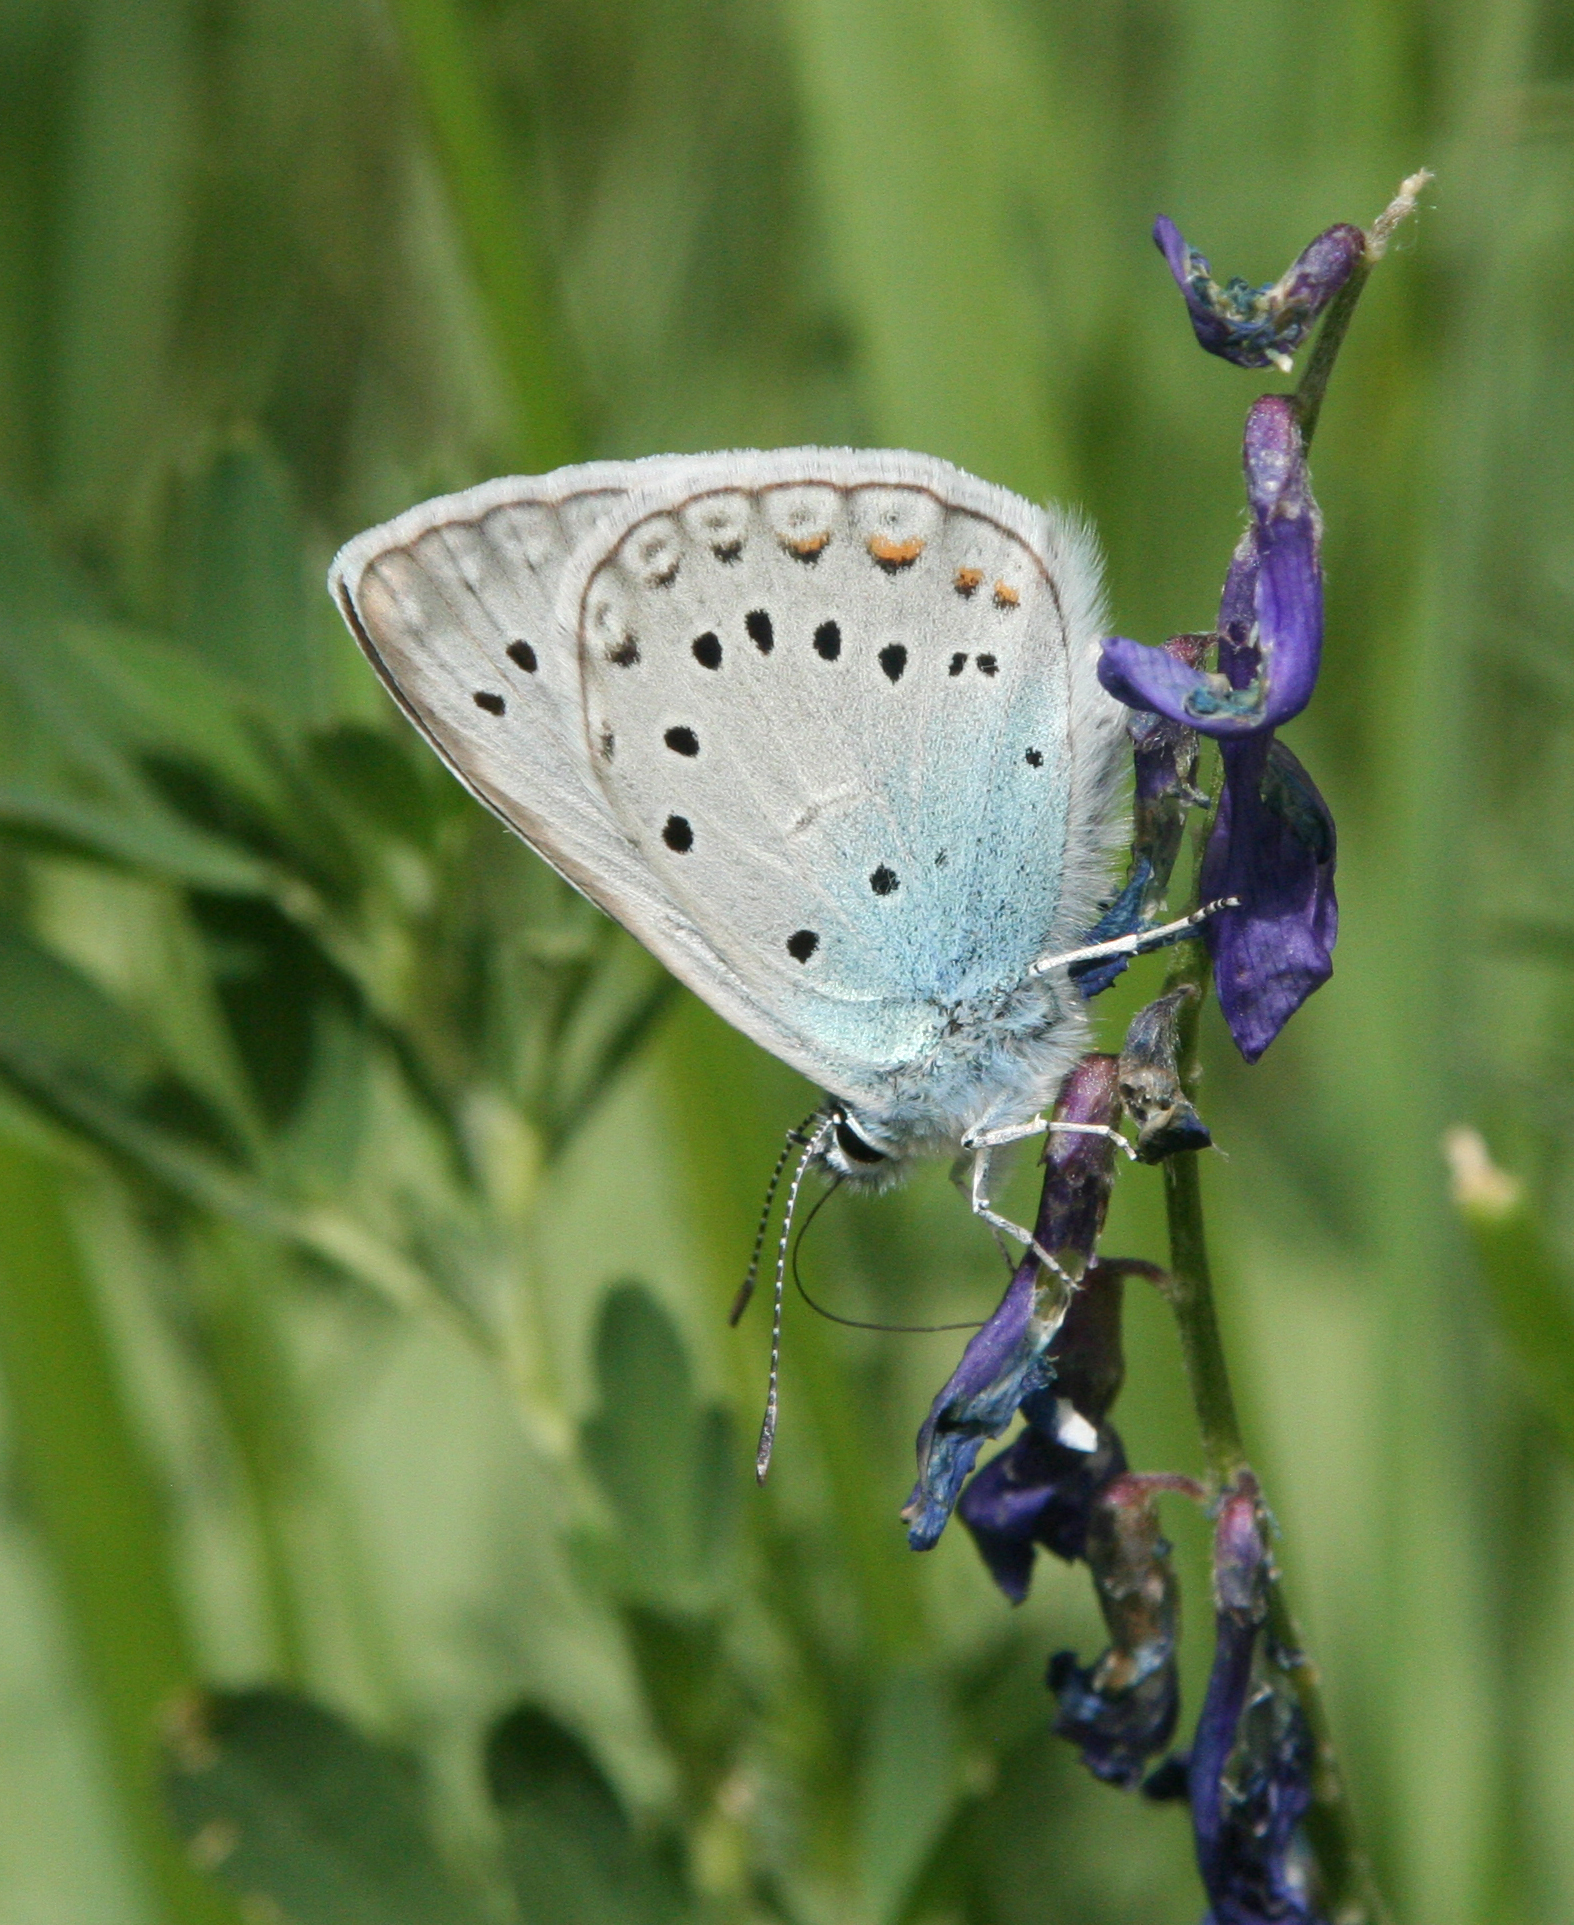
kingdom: Animalia
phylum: Arthropoda
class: Insecta
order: Lepidoptera
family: Lycaenidae
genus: Plebejus
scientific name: Plebejus amanda
